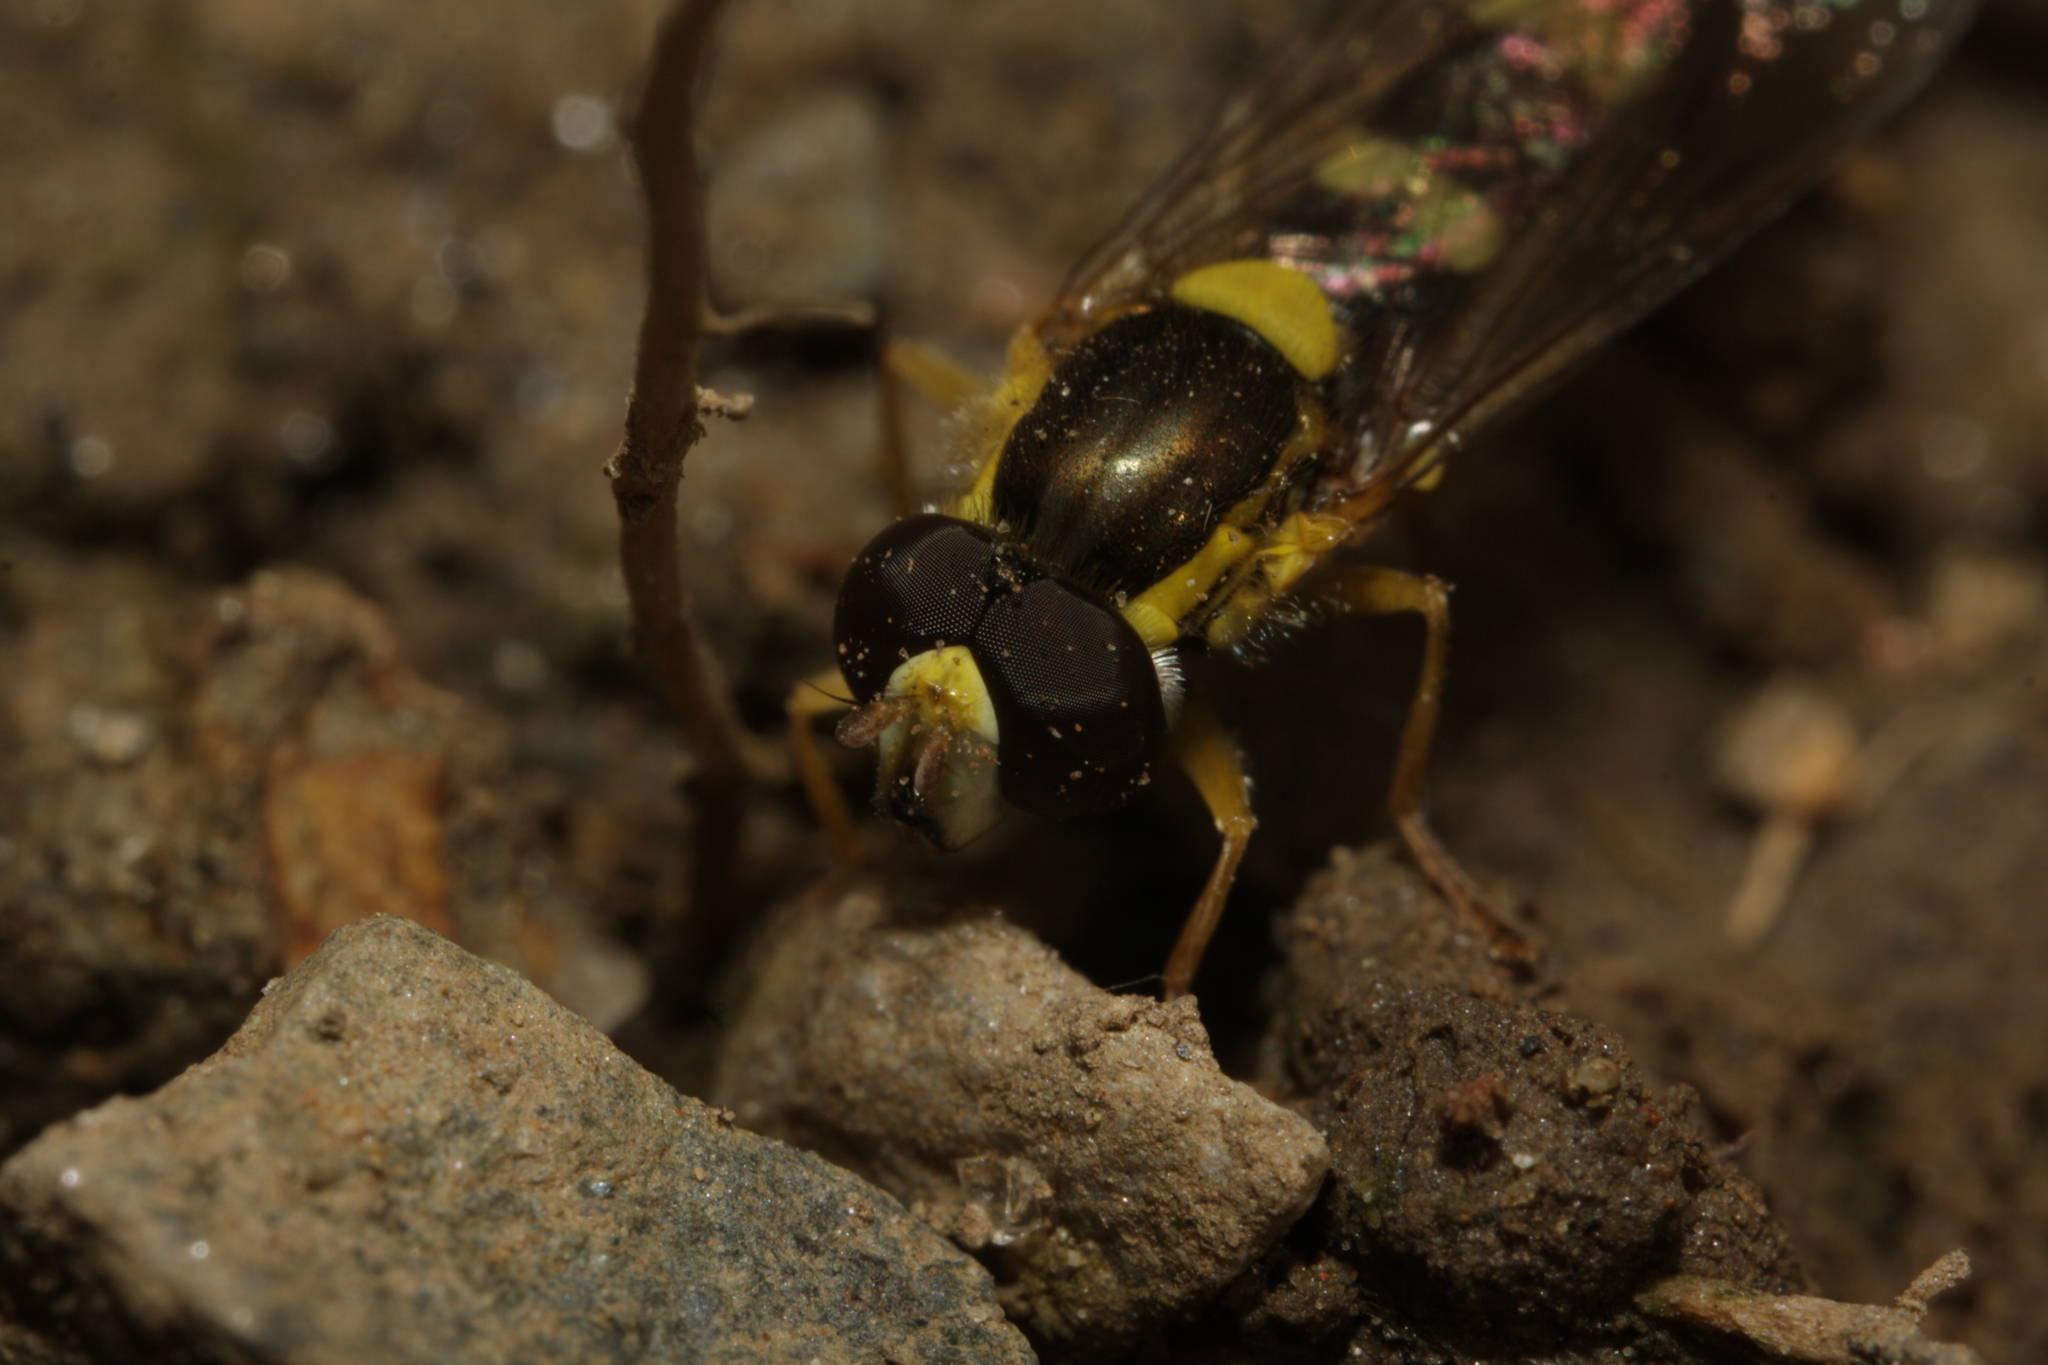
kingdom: Animalia
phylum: Arthropoda
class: Insecta
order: Diptera
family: Syrphidae
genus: Sphaerophoria
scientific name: Sphaerophoria scripta
